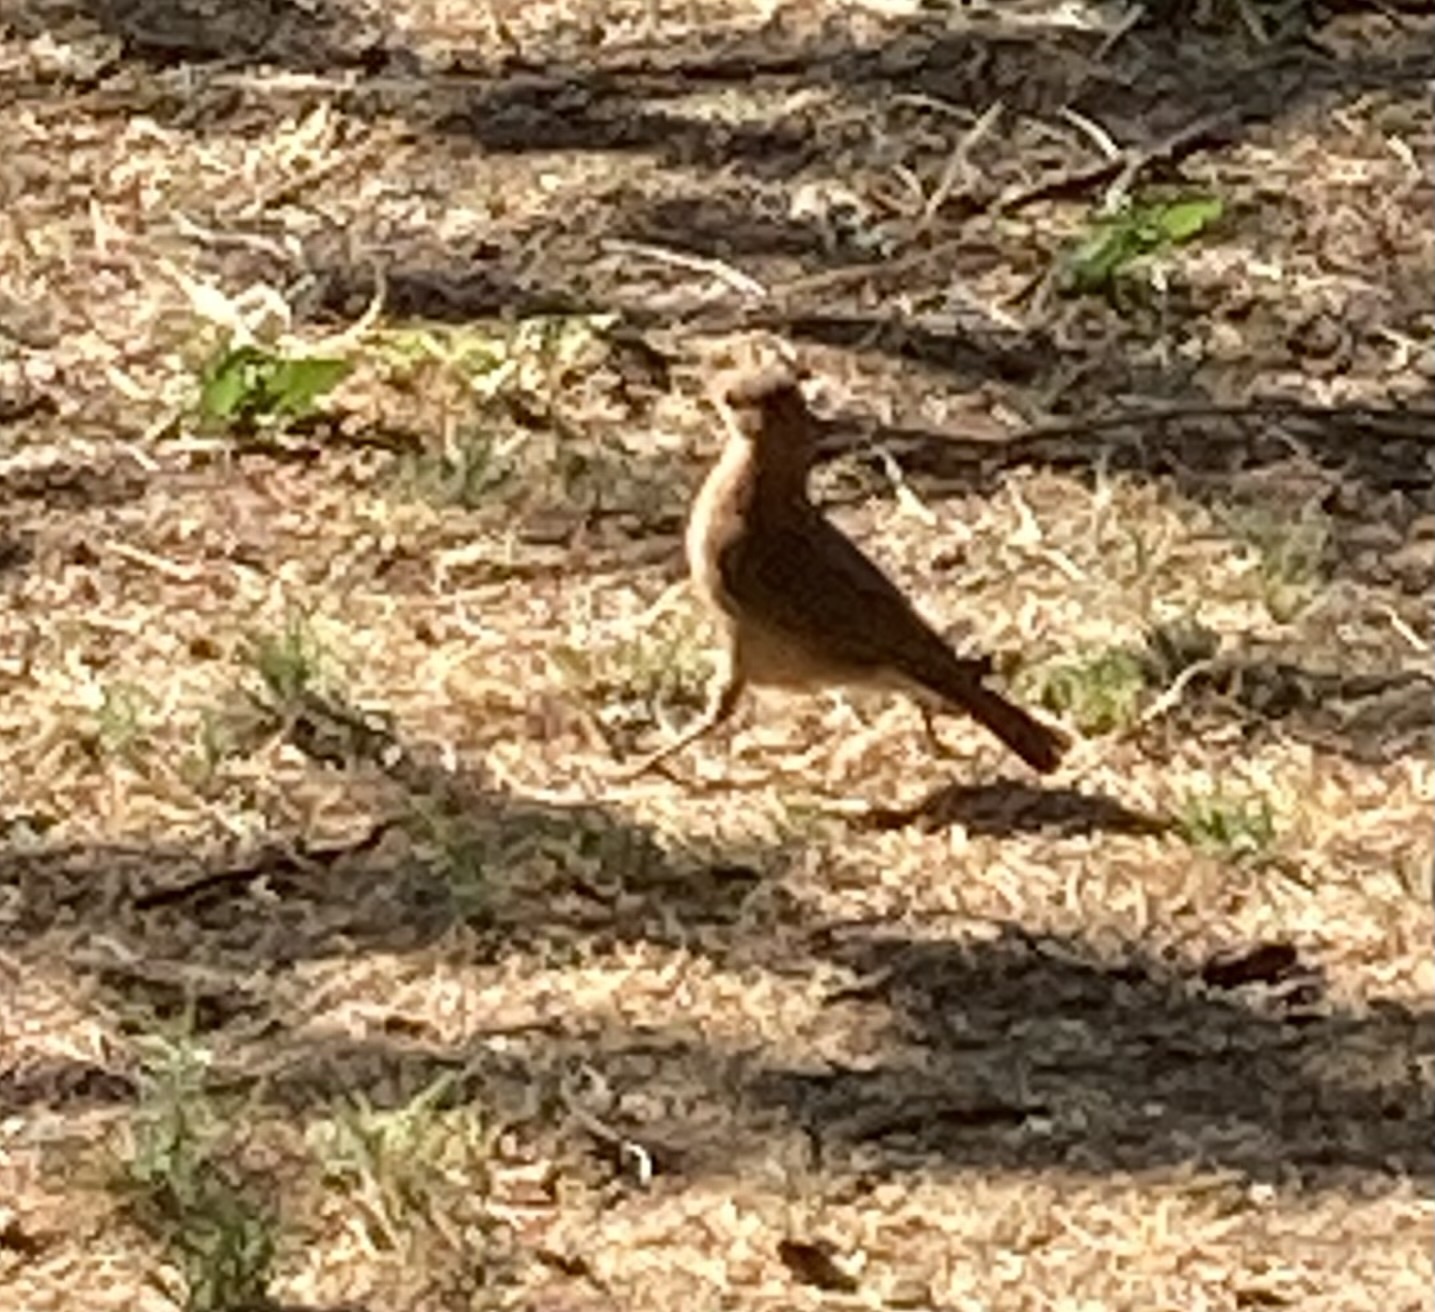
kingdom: Animalia
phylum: Chordata
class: Aves
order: Passeriformes
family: Furnariidae
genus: Furnarius
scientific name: Furnarius rufus
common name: Rufous hornero
